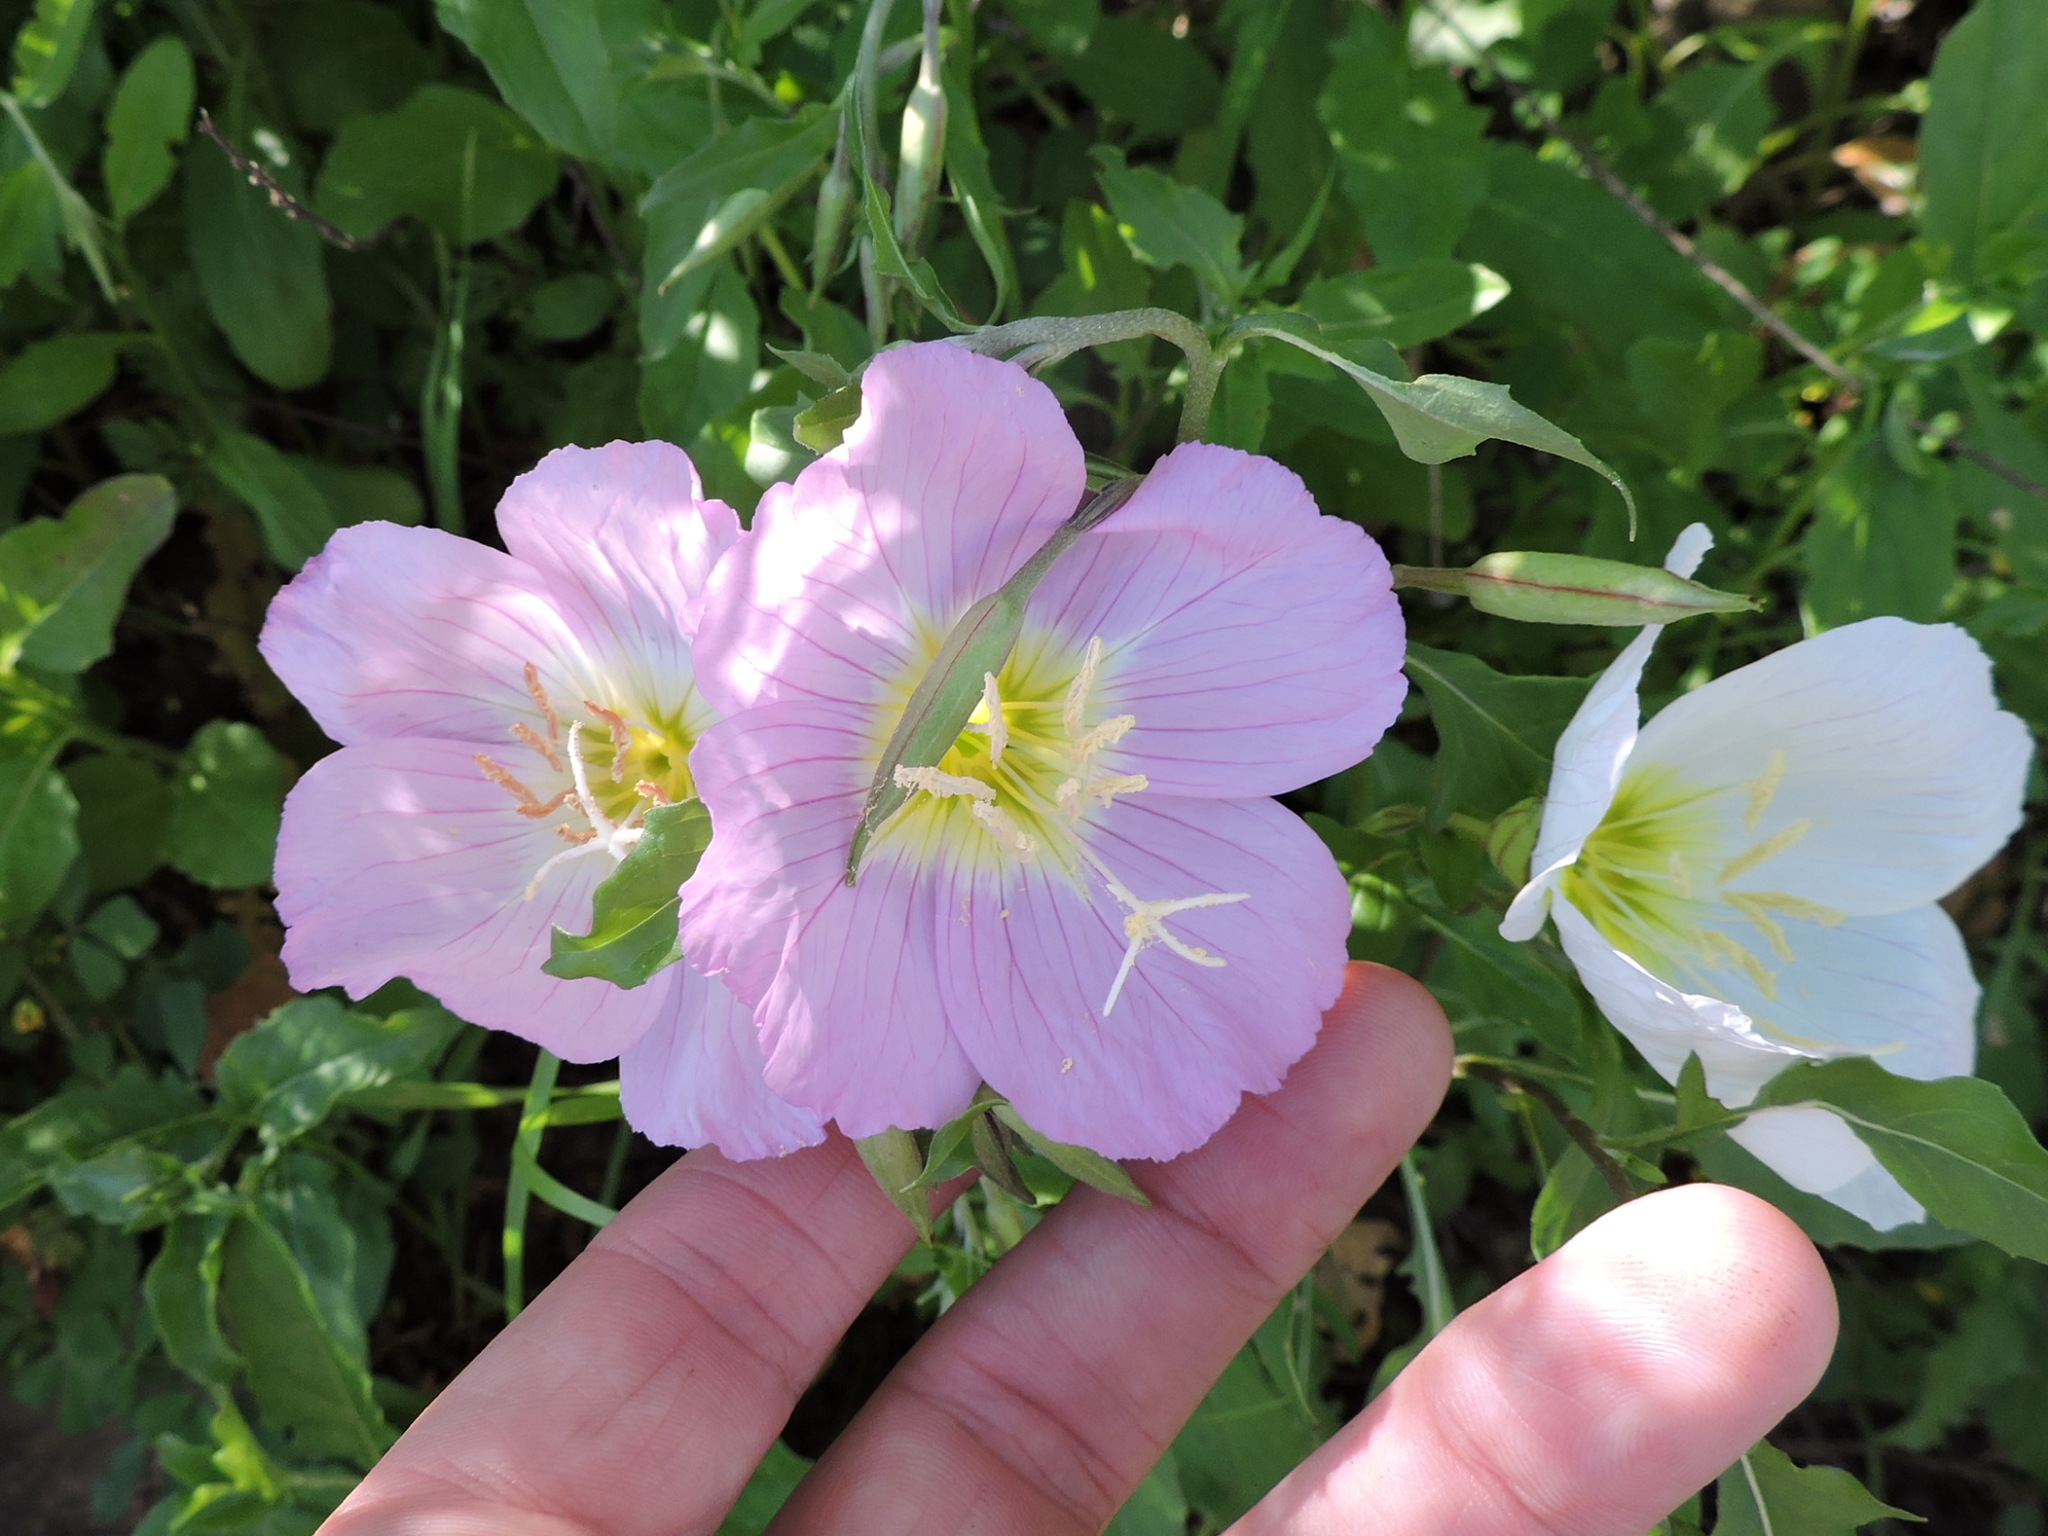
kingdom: Plantae
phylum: Tracheophyta
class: Magnoliopsida
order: Myrtales
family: Onagraceae
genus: Oenothera
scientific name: Oenothera speciosa
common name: White evening-primrose
